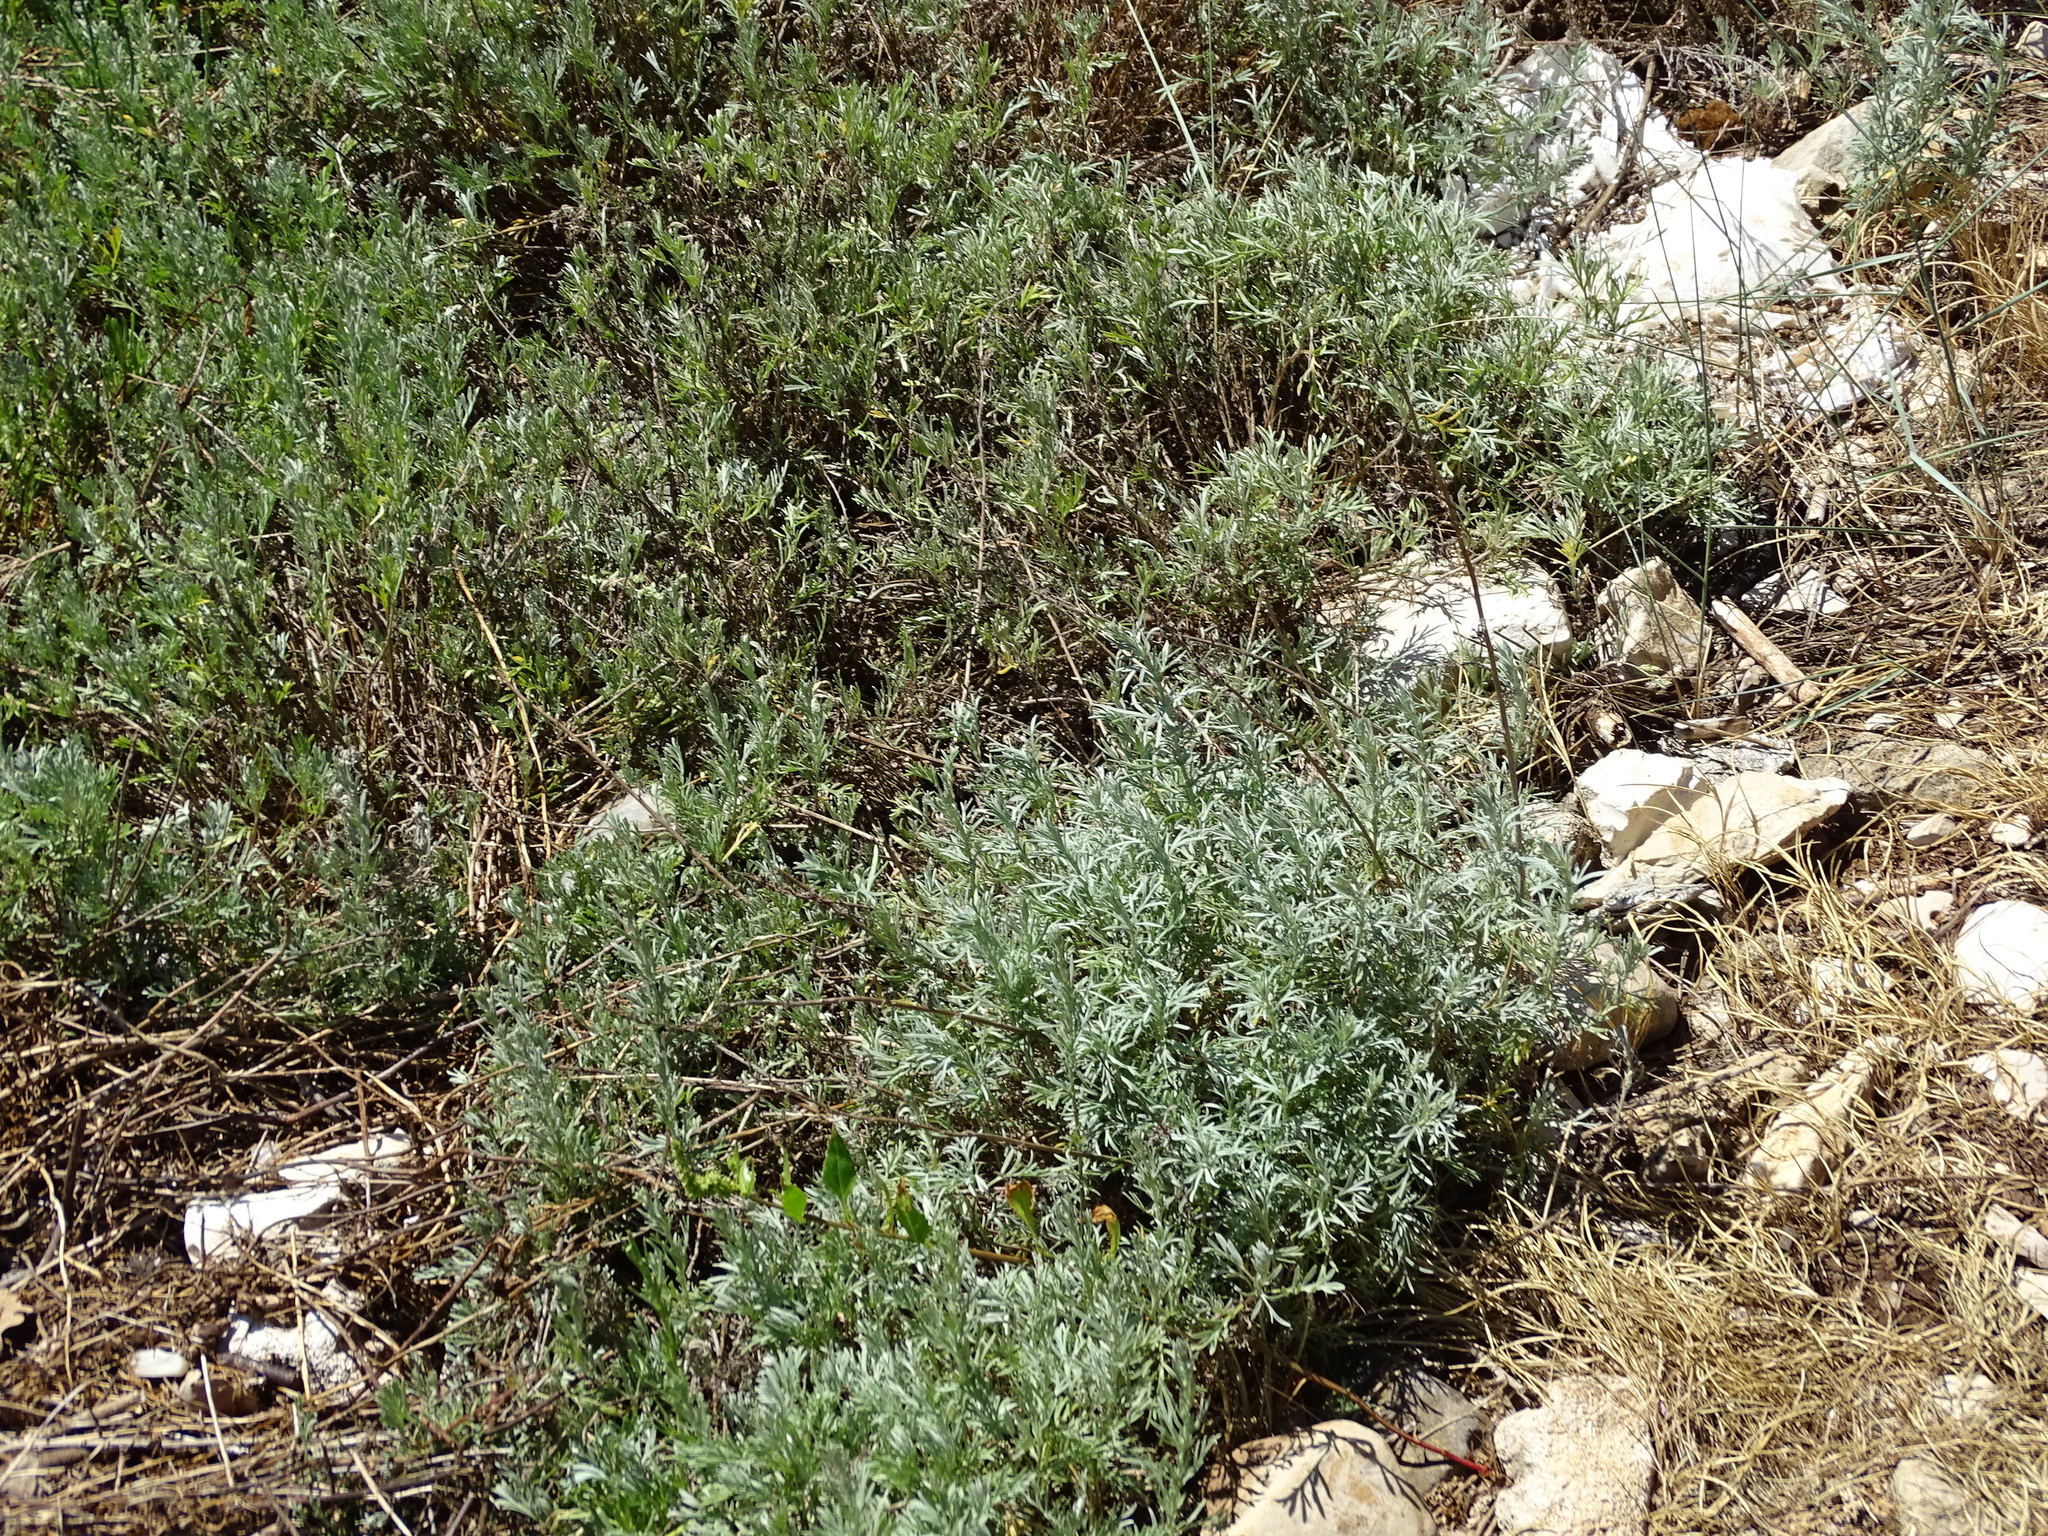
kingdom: Plantae
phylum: Tracheophyta
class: Magnoliopsida
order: Asterales
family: Asteraceae
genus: Artemisia
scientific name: Artemisia caerulescens
